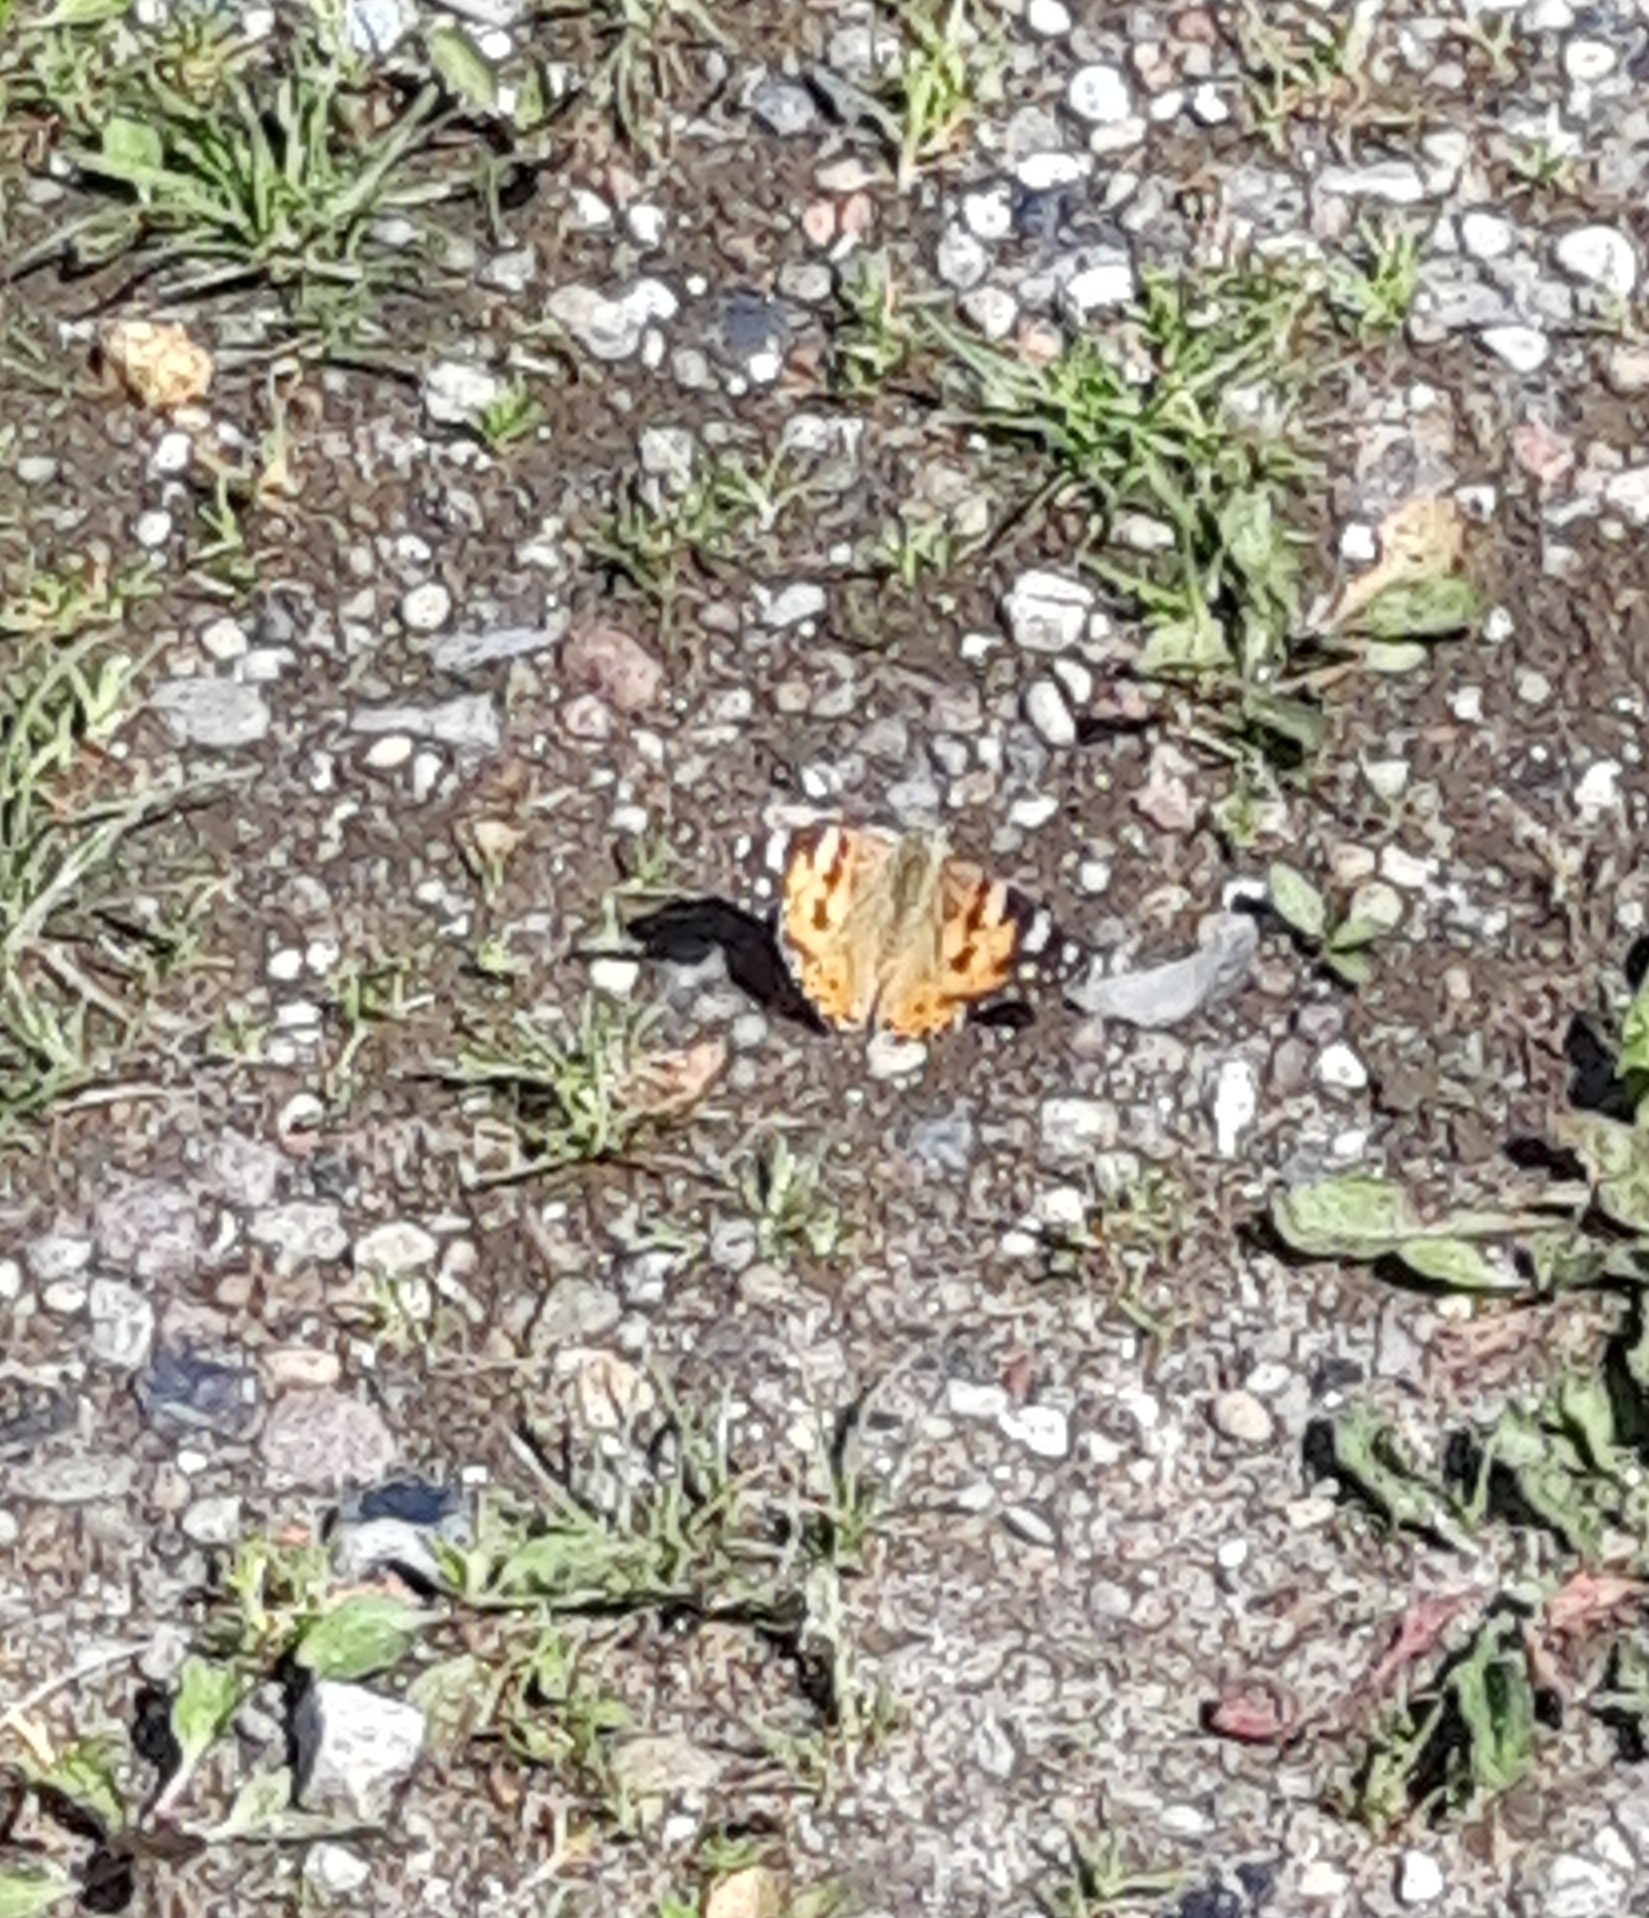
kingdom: Animalia
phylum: Arthropoda
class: Insecta
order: Lepidoptera
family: Nymphalidae
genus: Vanessa
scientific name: Vanessa cardui
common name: Painted lady
